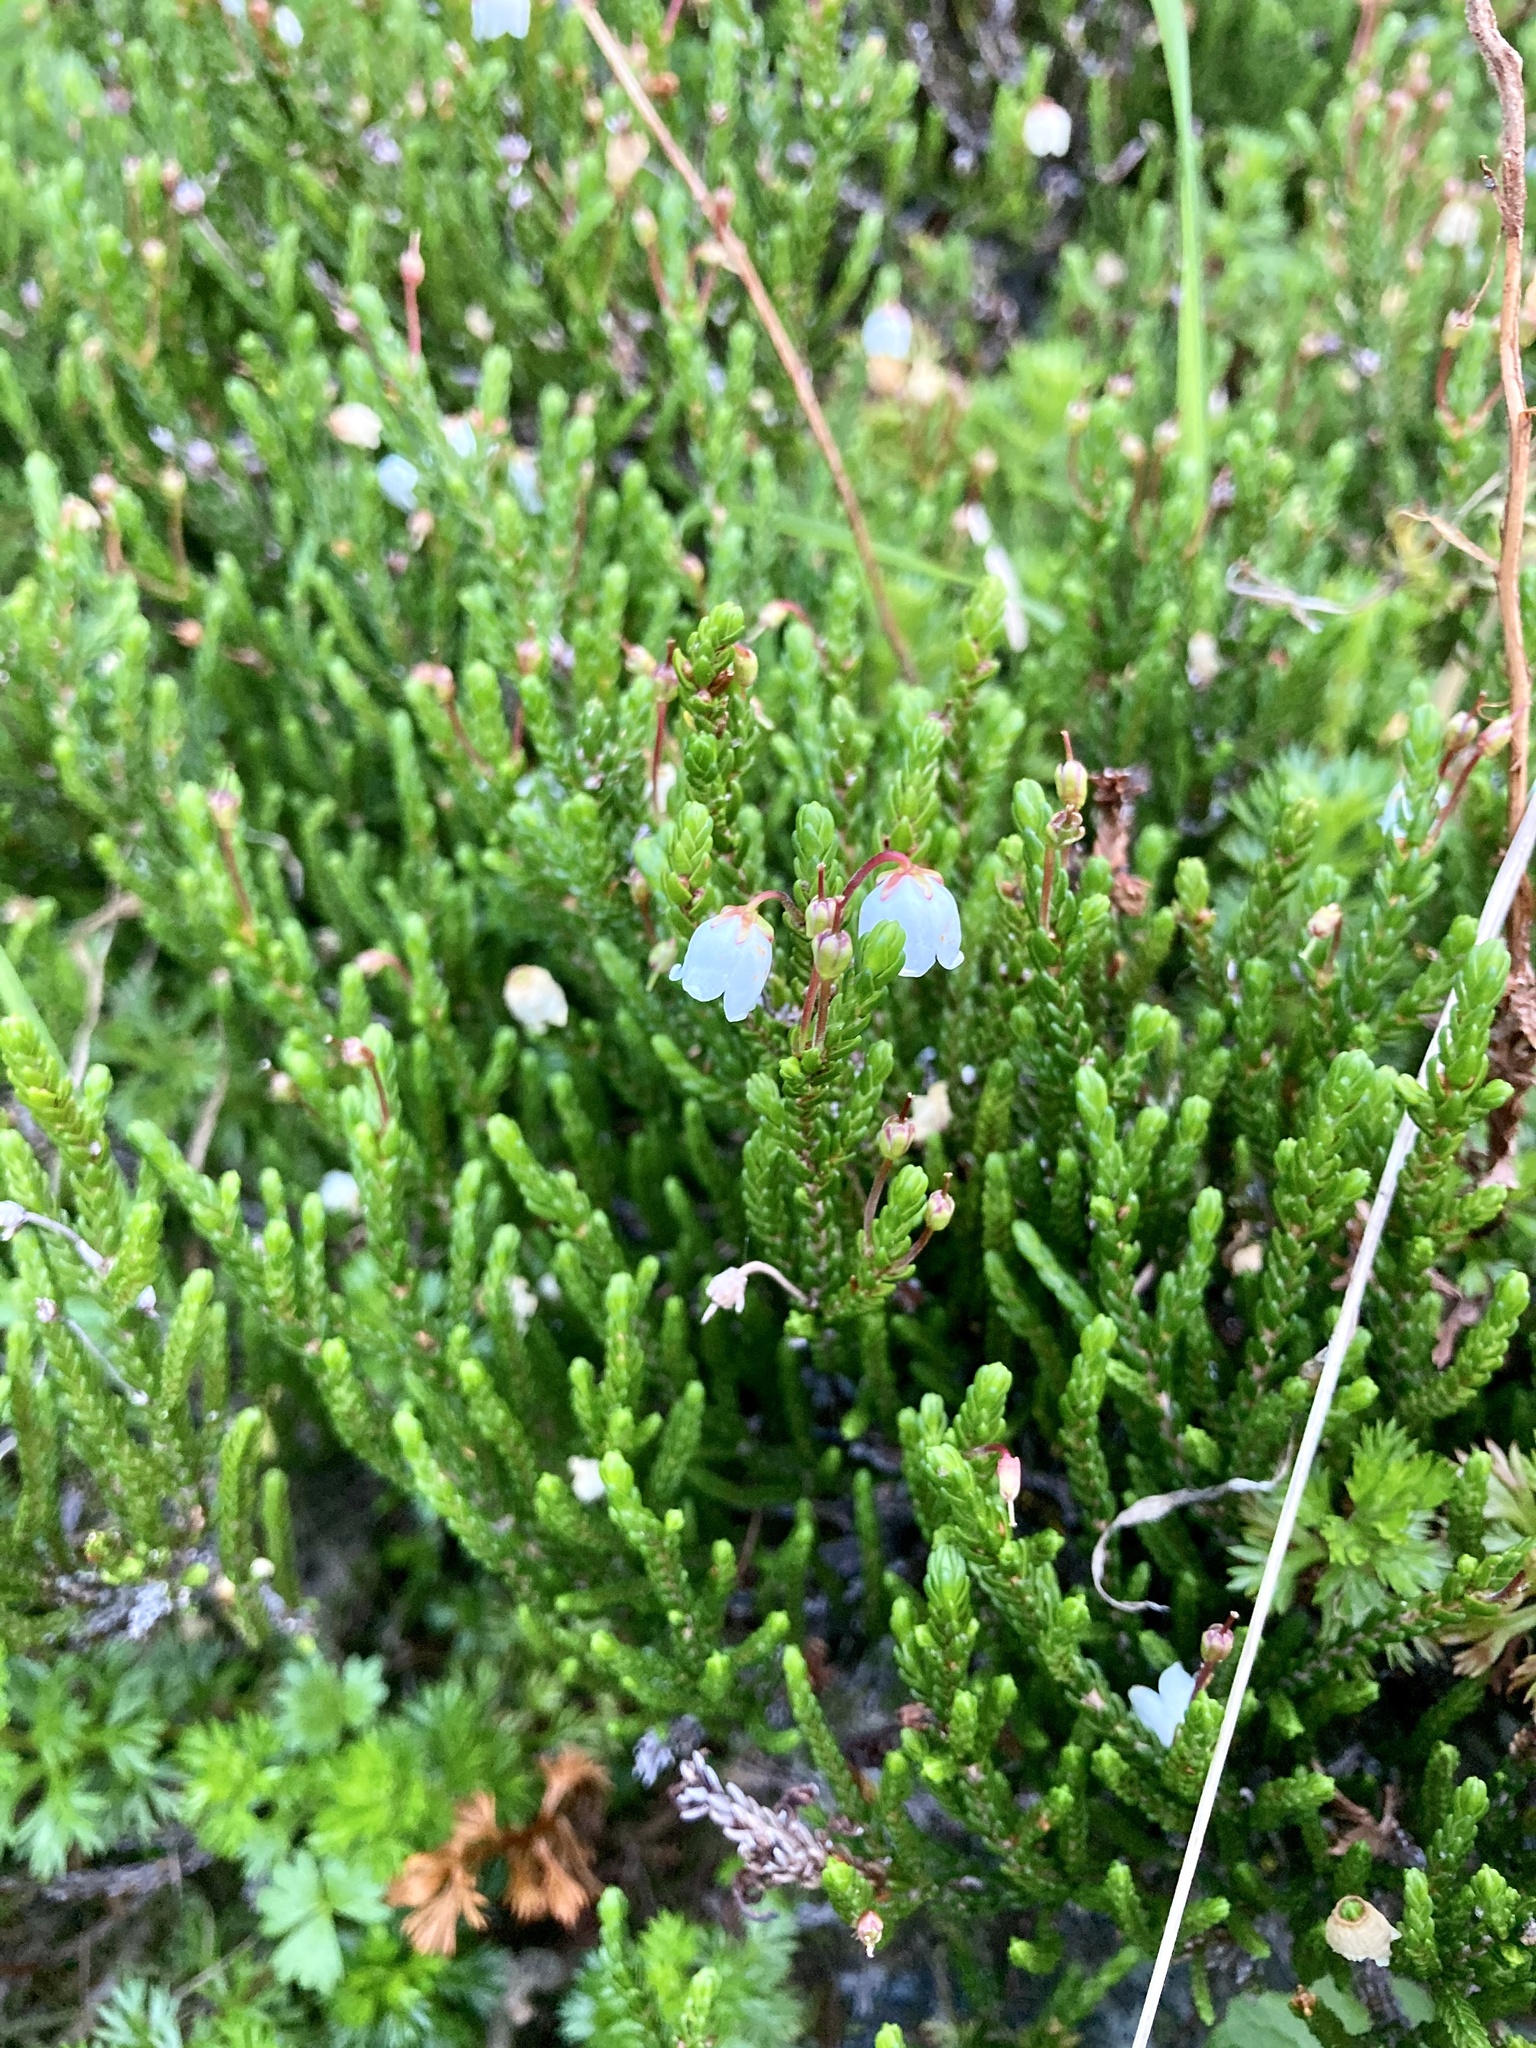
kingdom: Plantae
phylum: Tracheophyta
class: Magnoliopsida
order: Ericales
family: Ericaceae
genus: Cassiope
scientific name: Cassiope mertensiana
